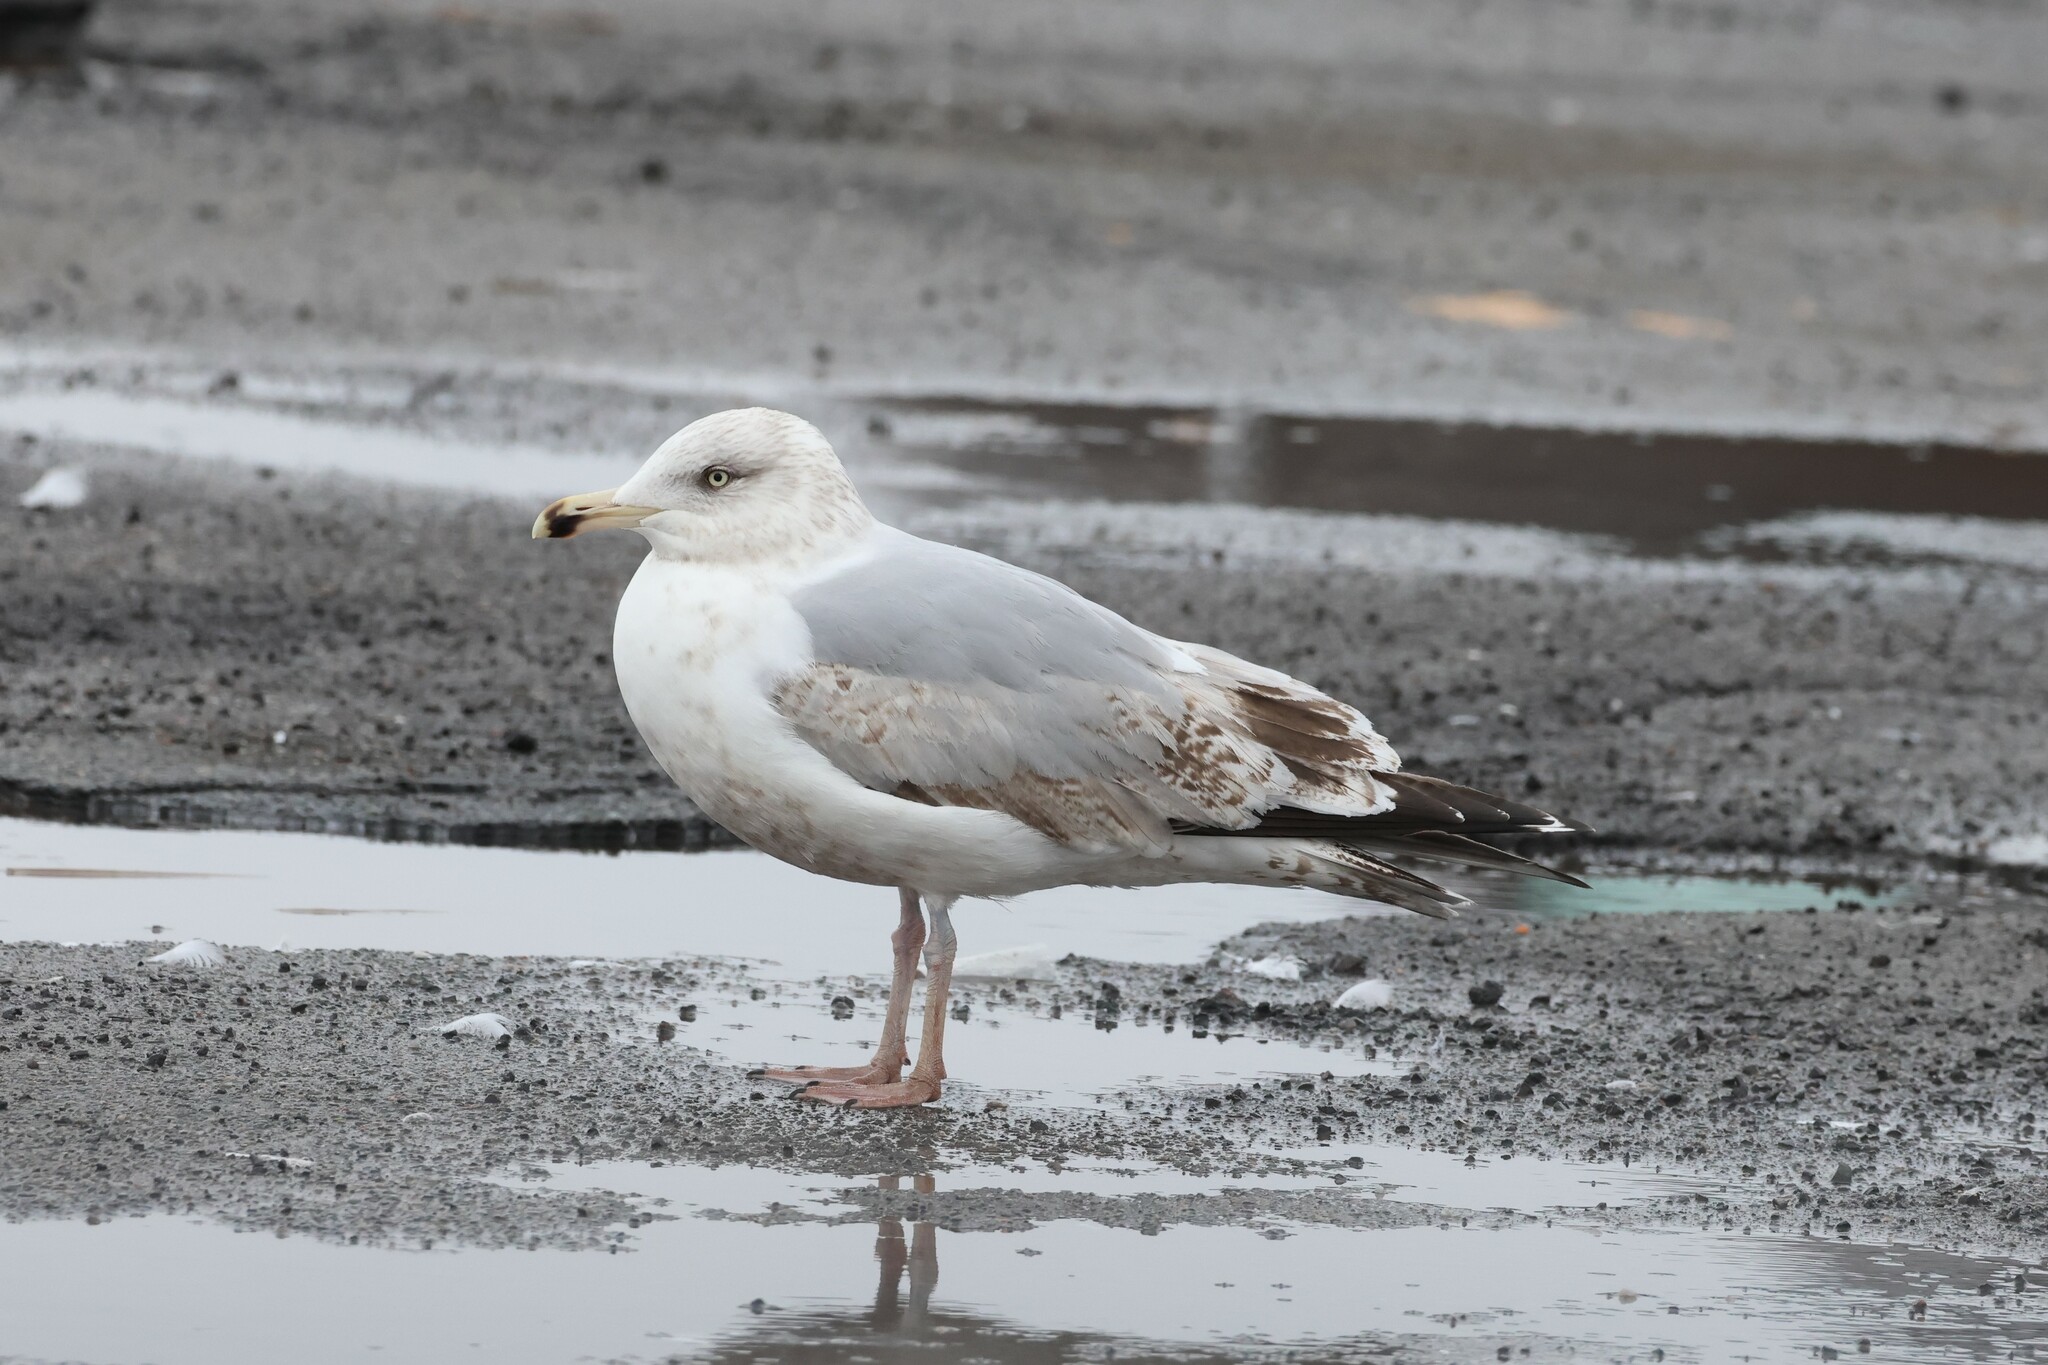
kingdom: Animalia
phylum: Chordata
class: Aves
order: Charadriiformes
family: Laridae
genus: Larus
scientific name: Larus argentatus
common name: Herring gull
